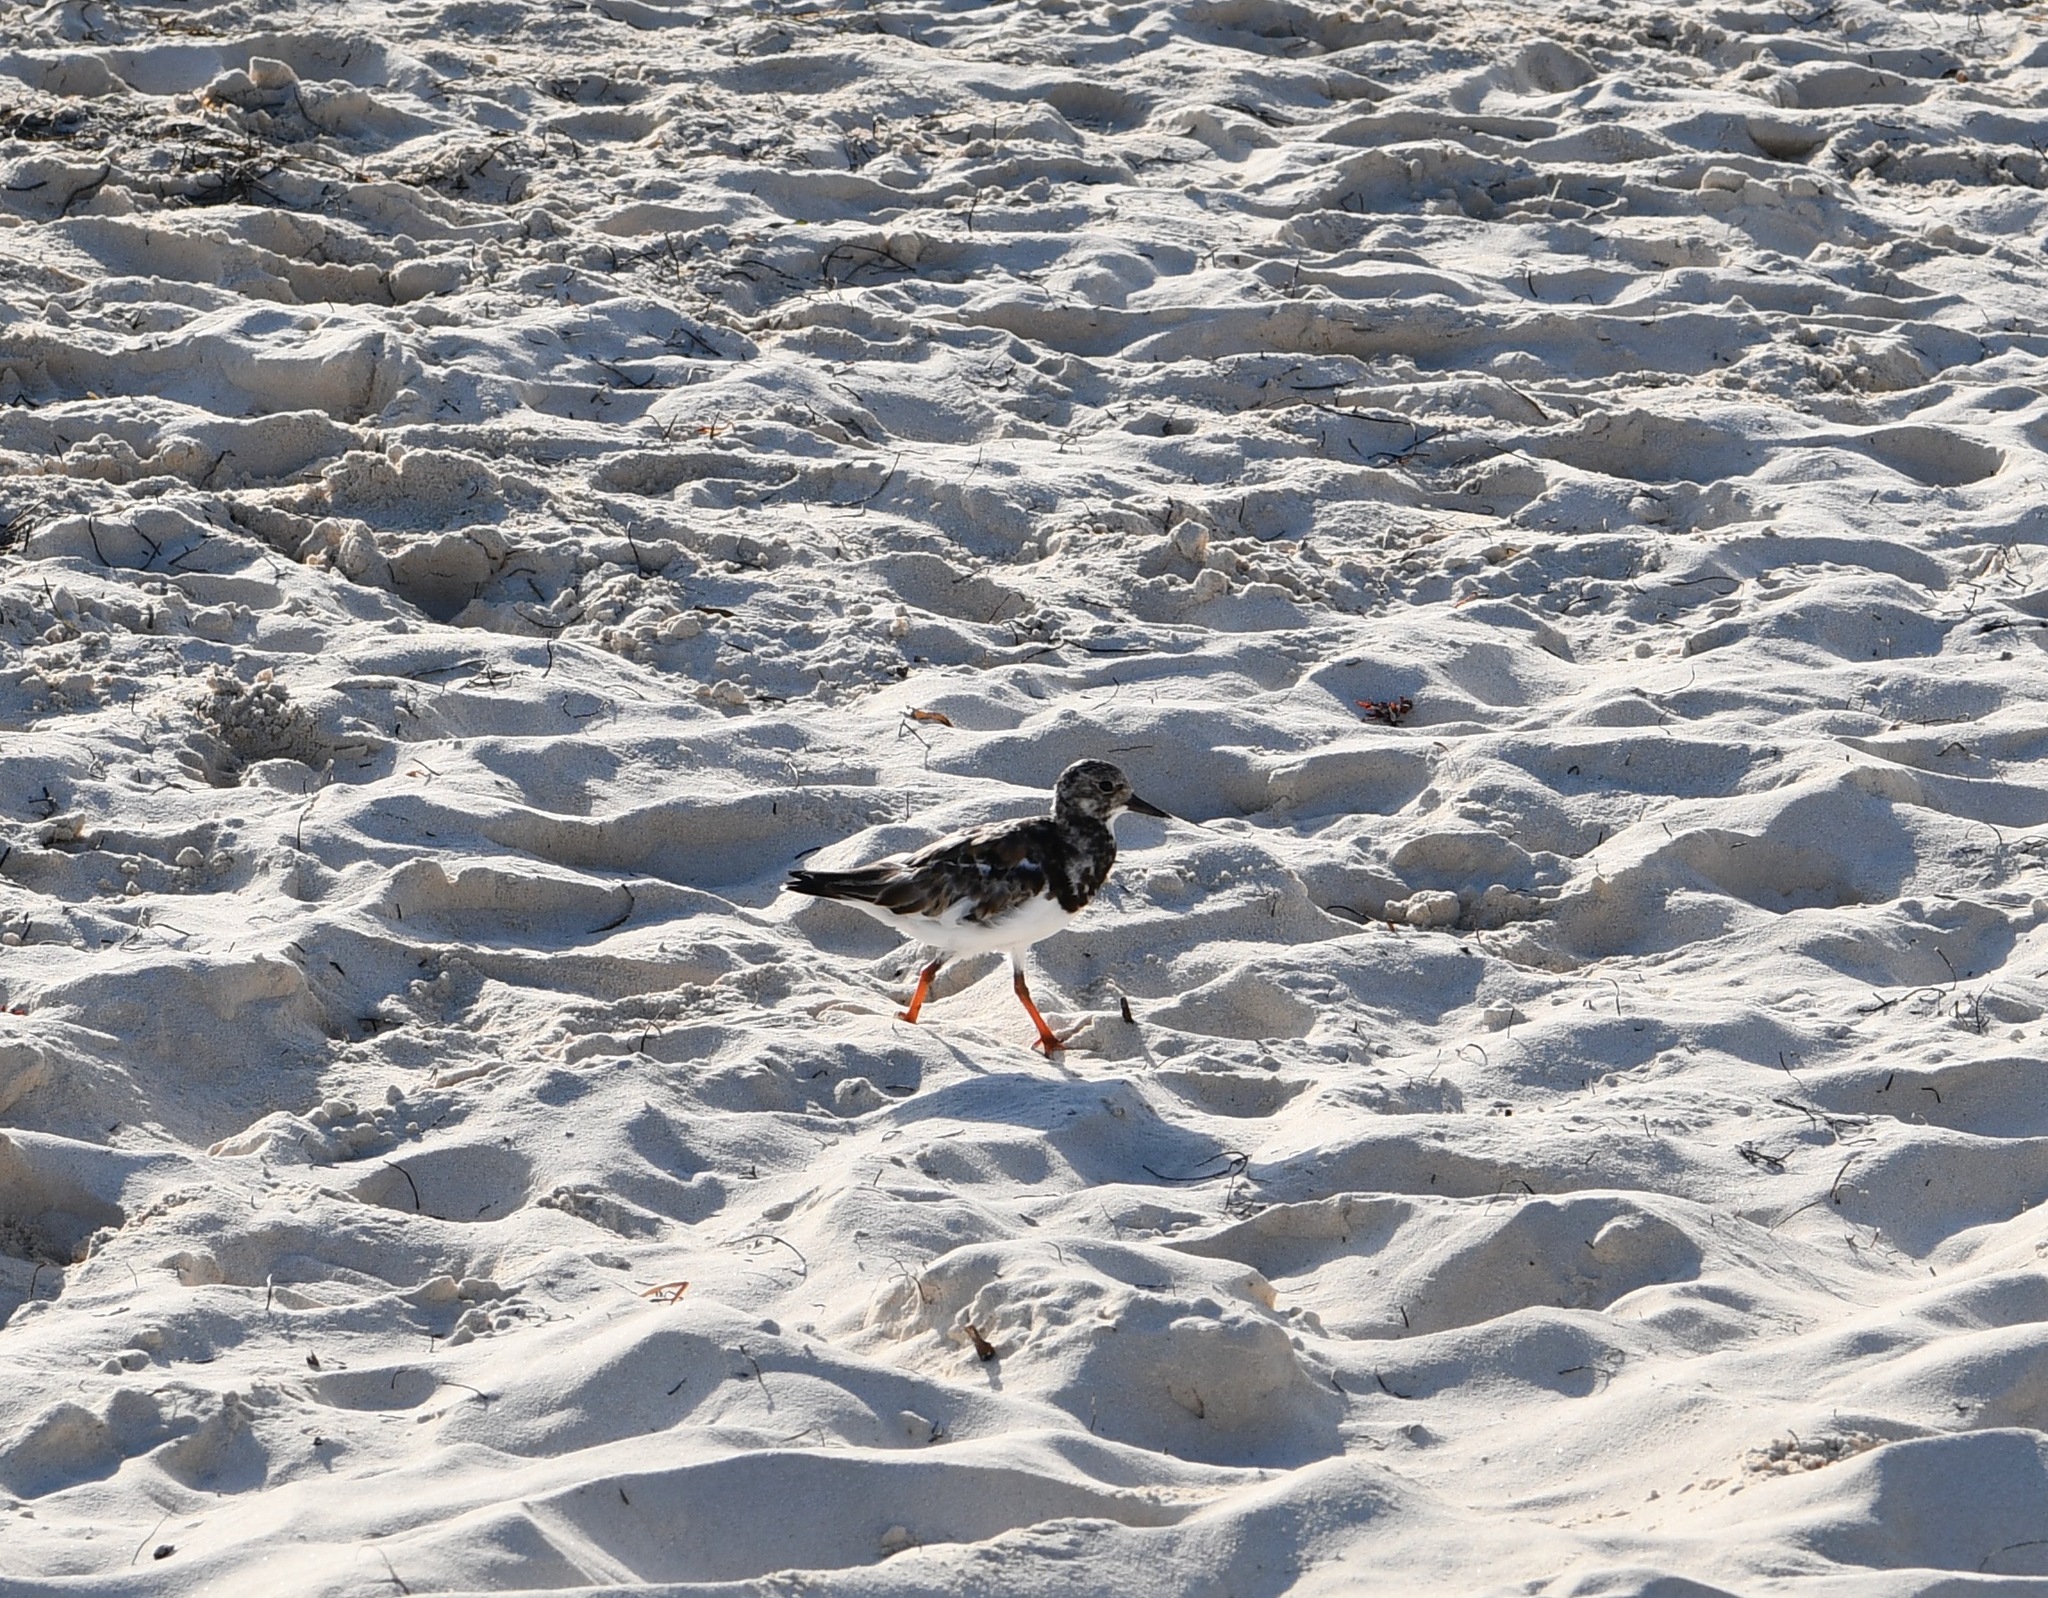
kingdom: Animalia
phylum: Chordata
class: Aves
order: Charadriiformes
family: Scolopacidae
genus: Arenaria
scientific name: Arenaria interpres
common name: Ruddy turnstone
